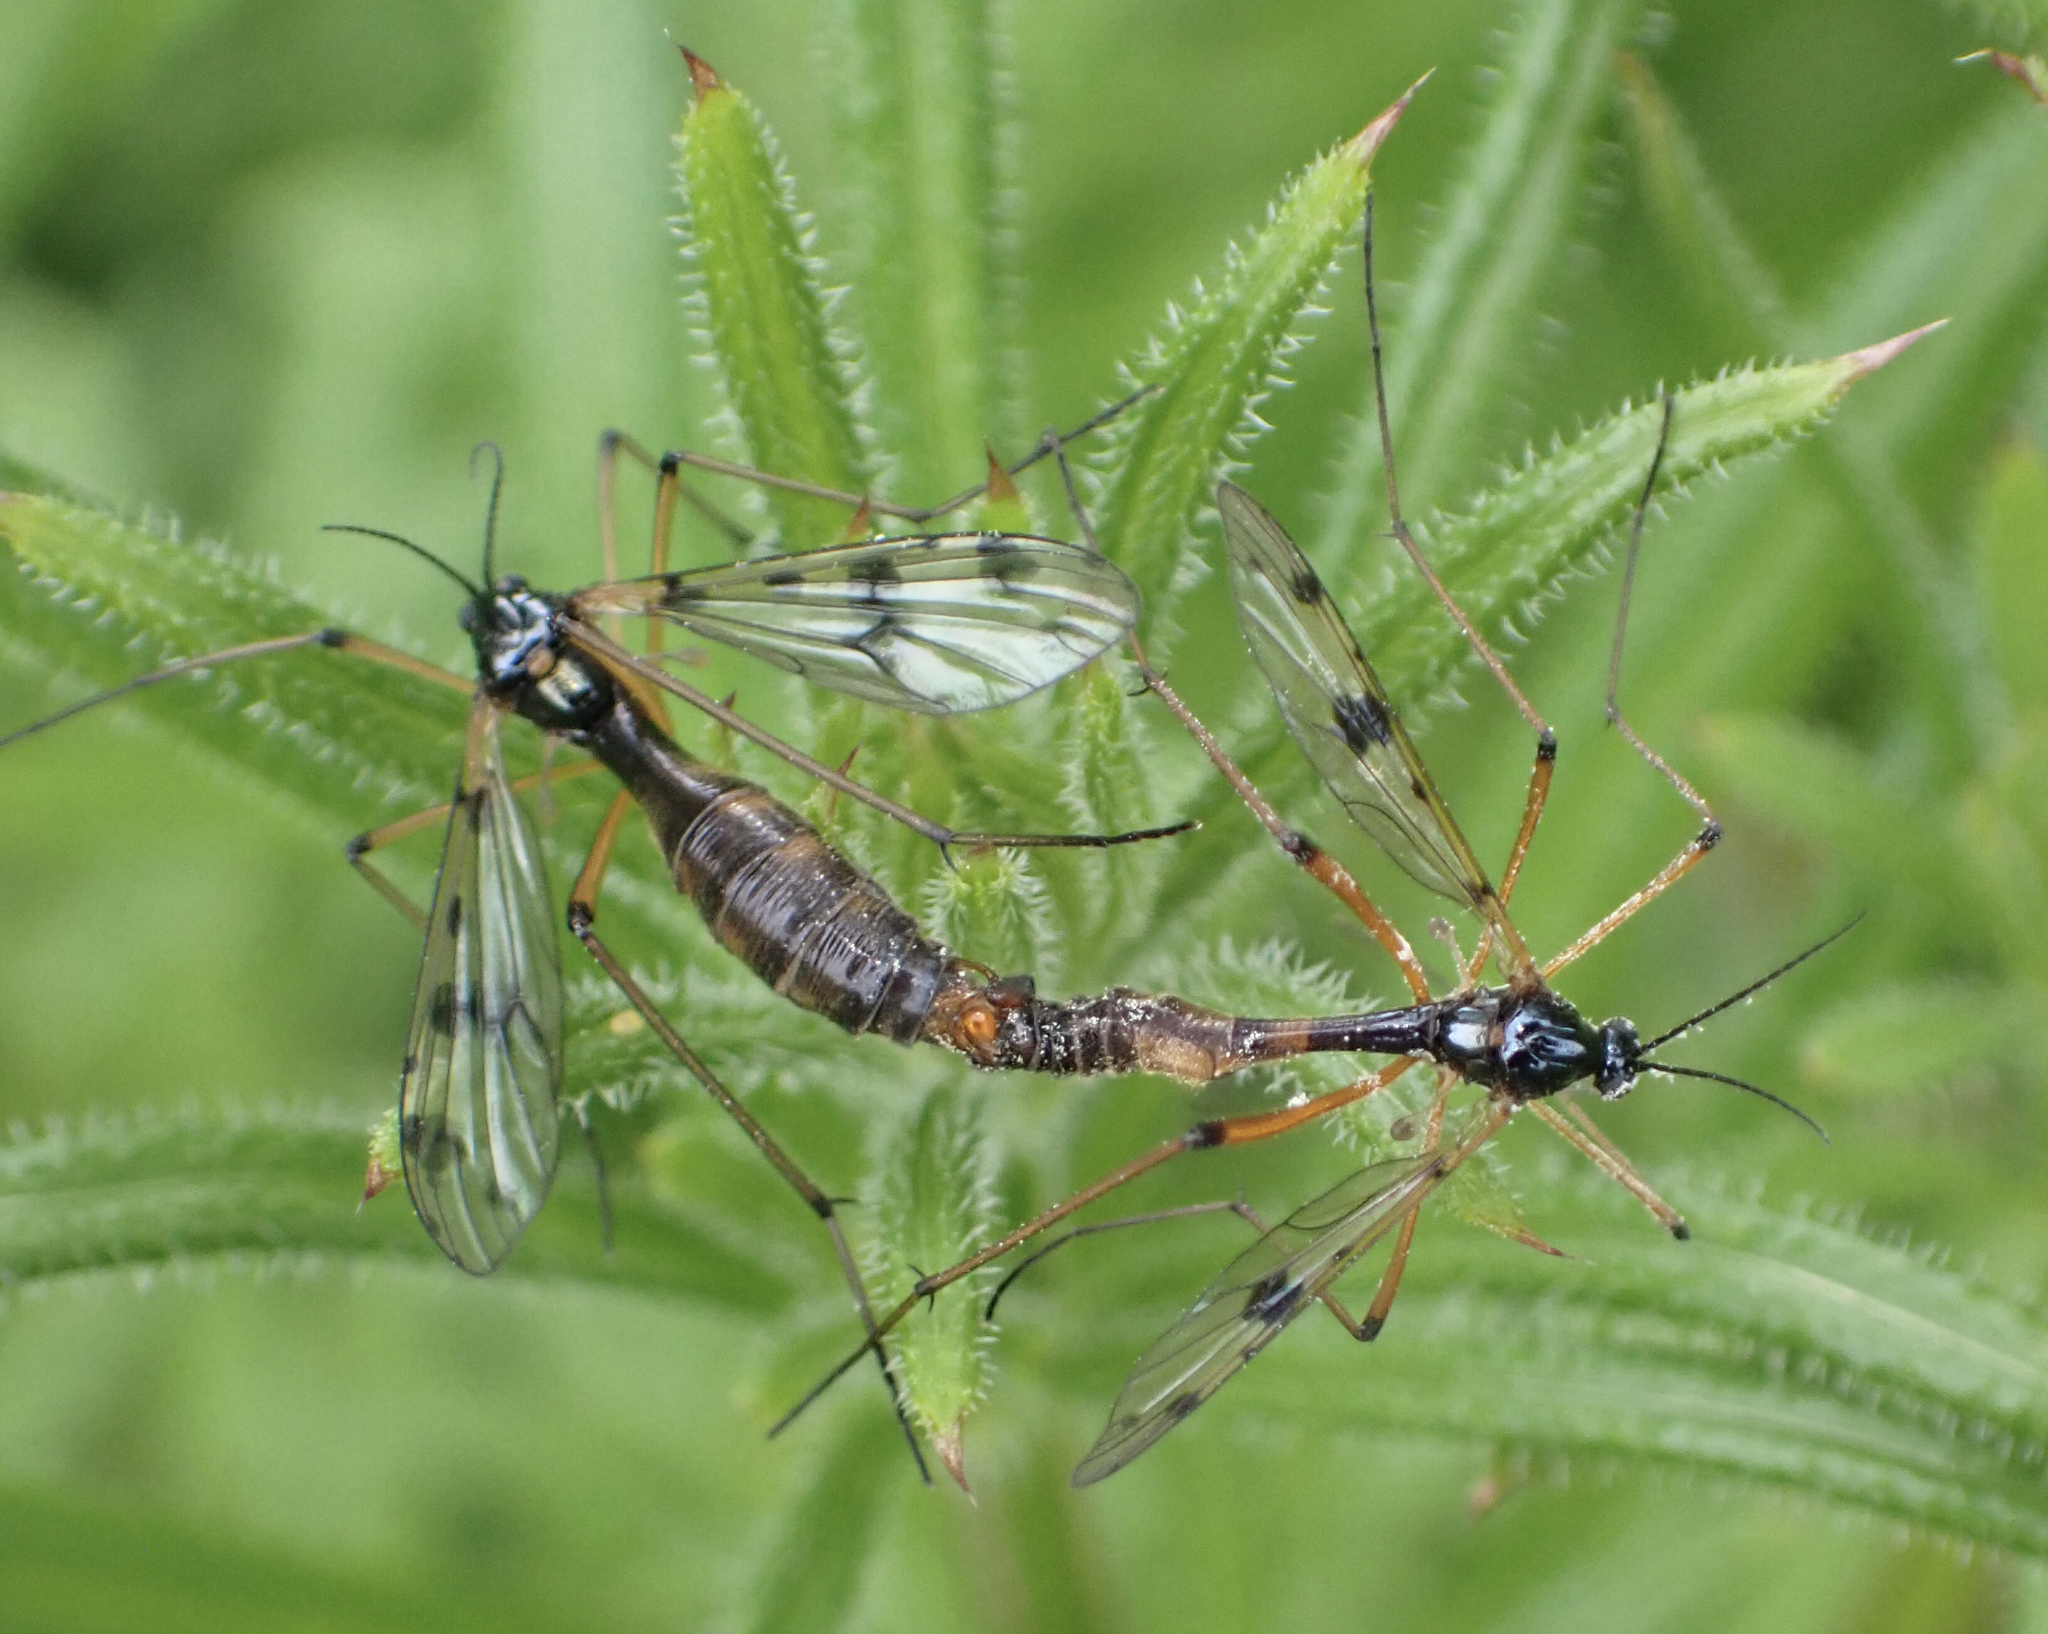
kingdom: Animalia
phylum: Arthropoda
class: Insecta
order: Diptera
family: Ptychopteridae
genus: Ptychoptera
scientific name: Ptychoptera contaminata
